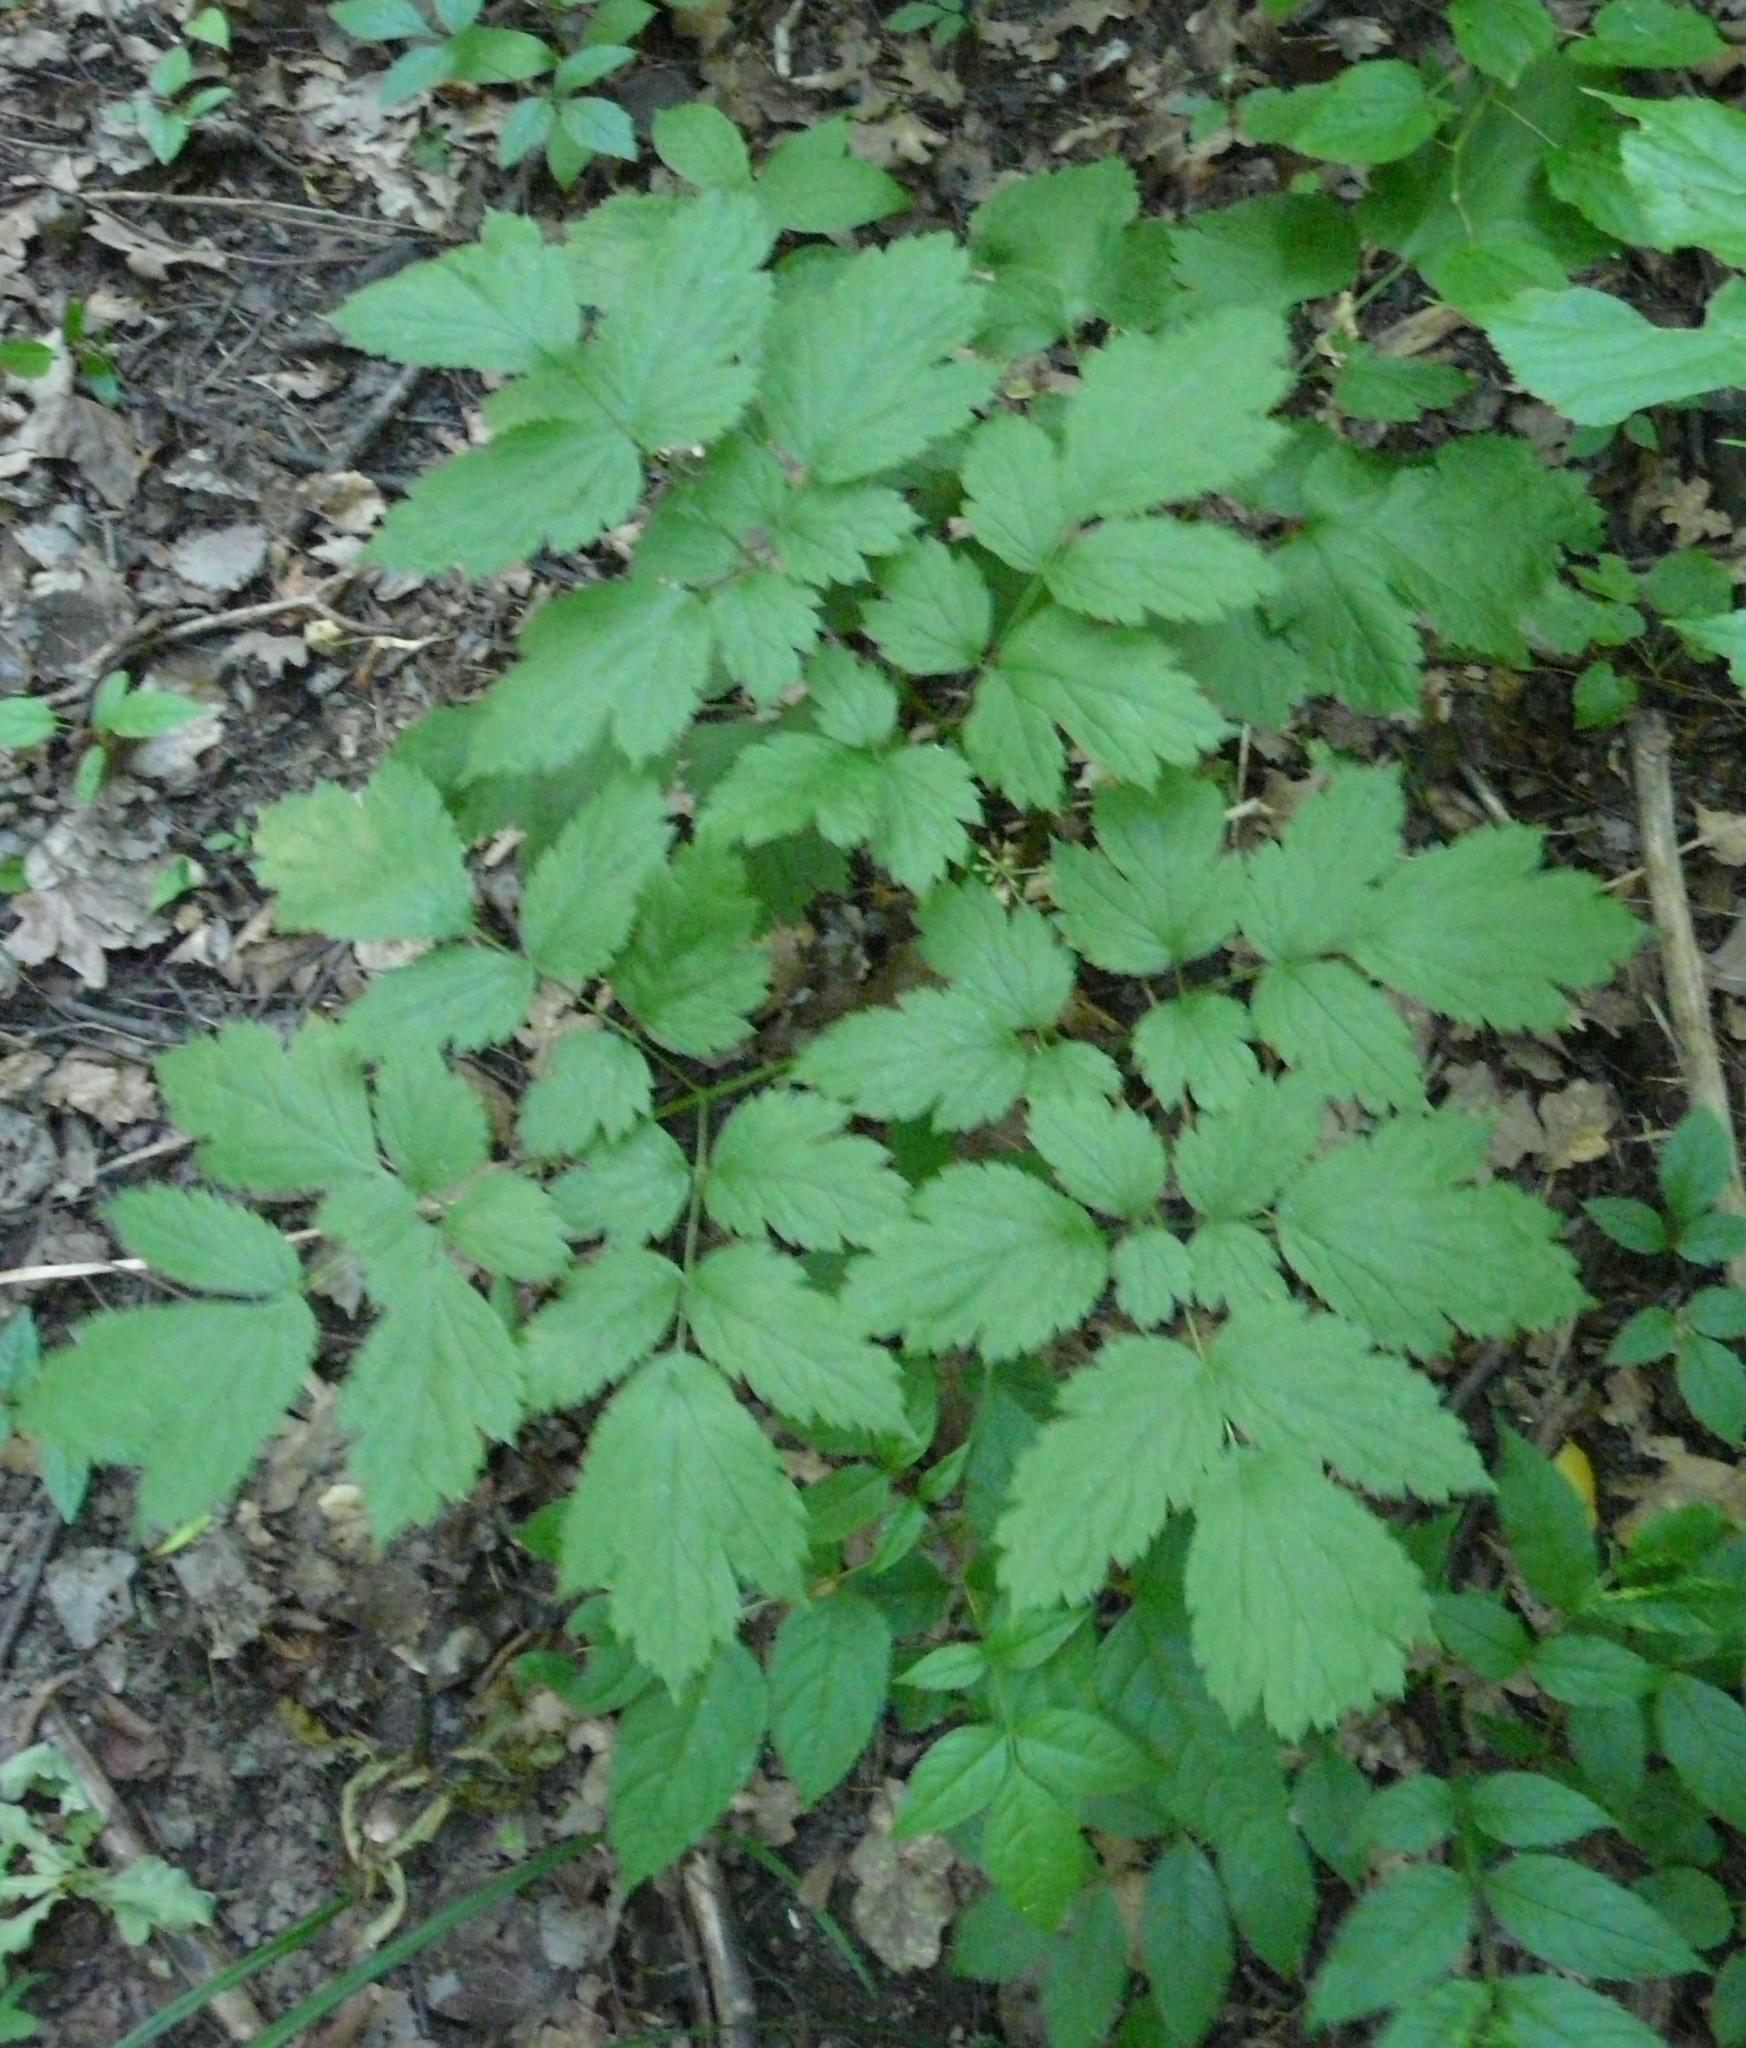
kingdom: Plantae
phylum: Tracheophyta
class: Magnoliopsida
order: Ranunculales
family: Ranunculaceae
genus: Actaea
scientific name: Actaea spicata
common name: Baneberry
